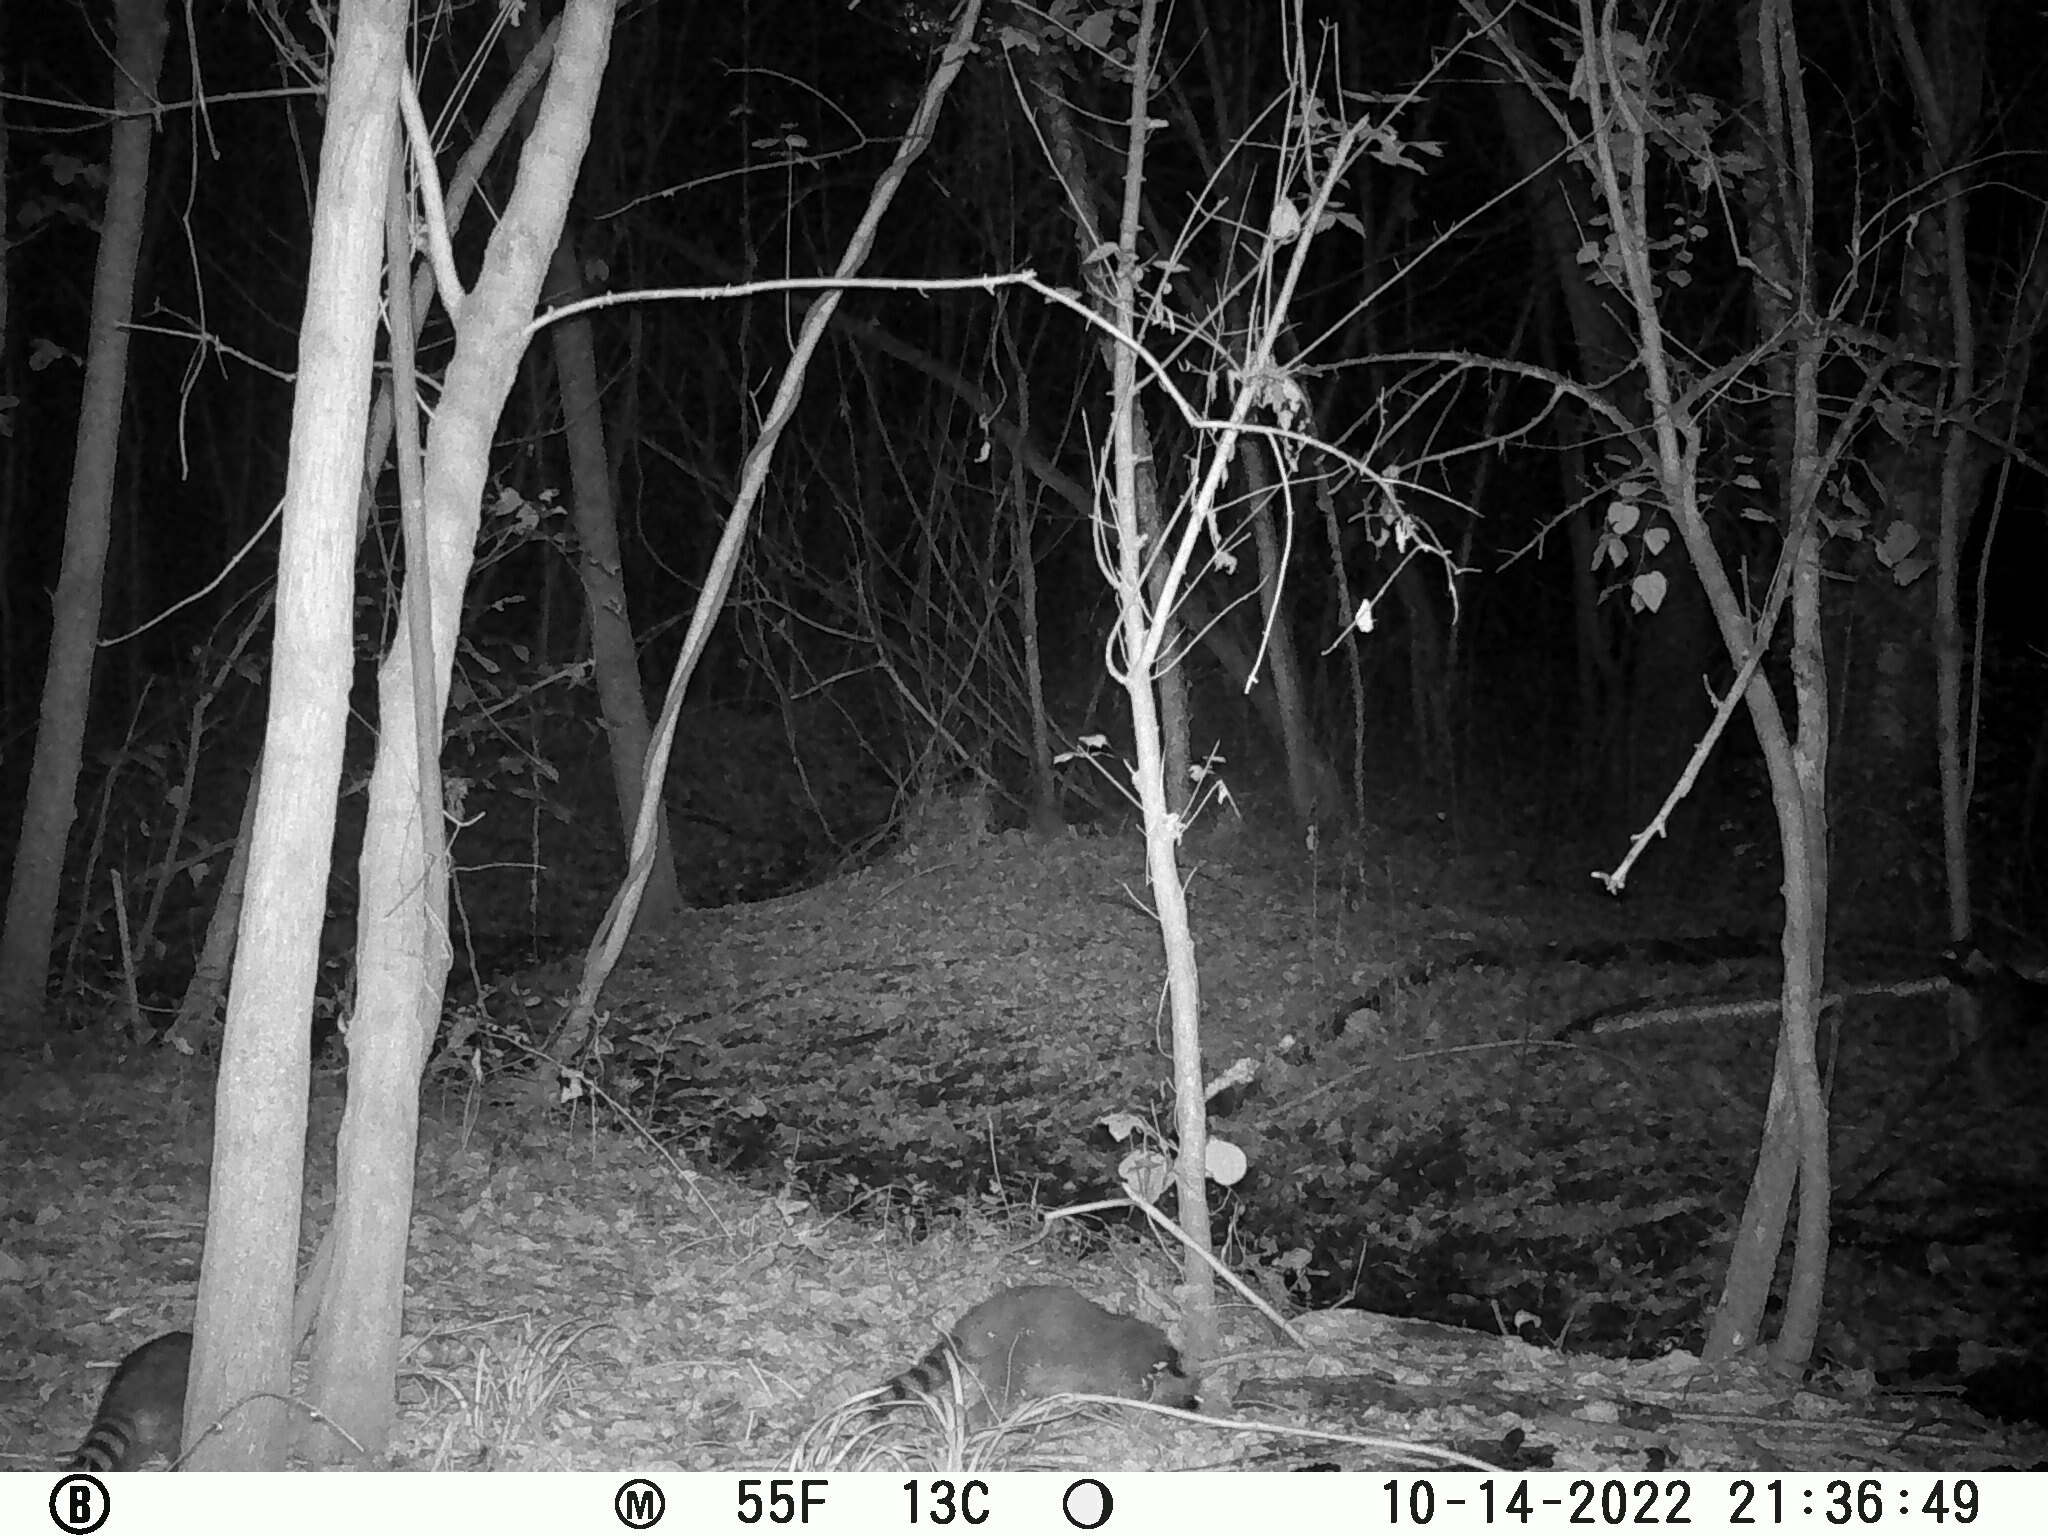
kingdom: Animalia
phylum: Chordata
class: Mammalia
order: Carnivora
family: Procyonidae
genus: Procyon
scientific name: Procyon lotor
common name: Raccoon
